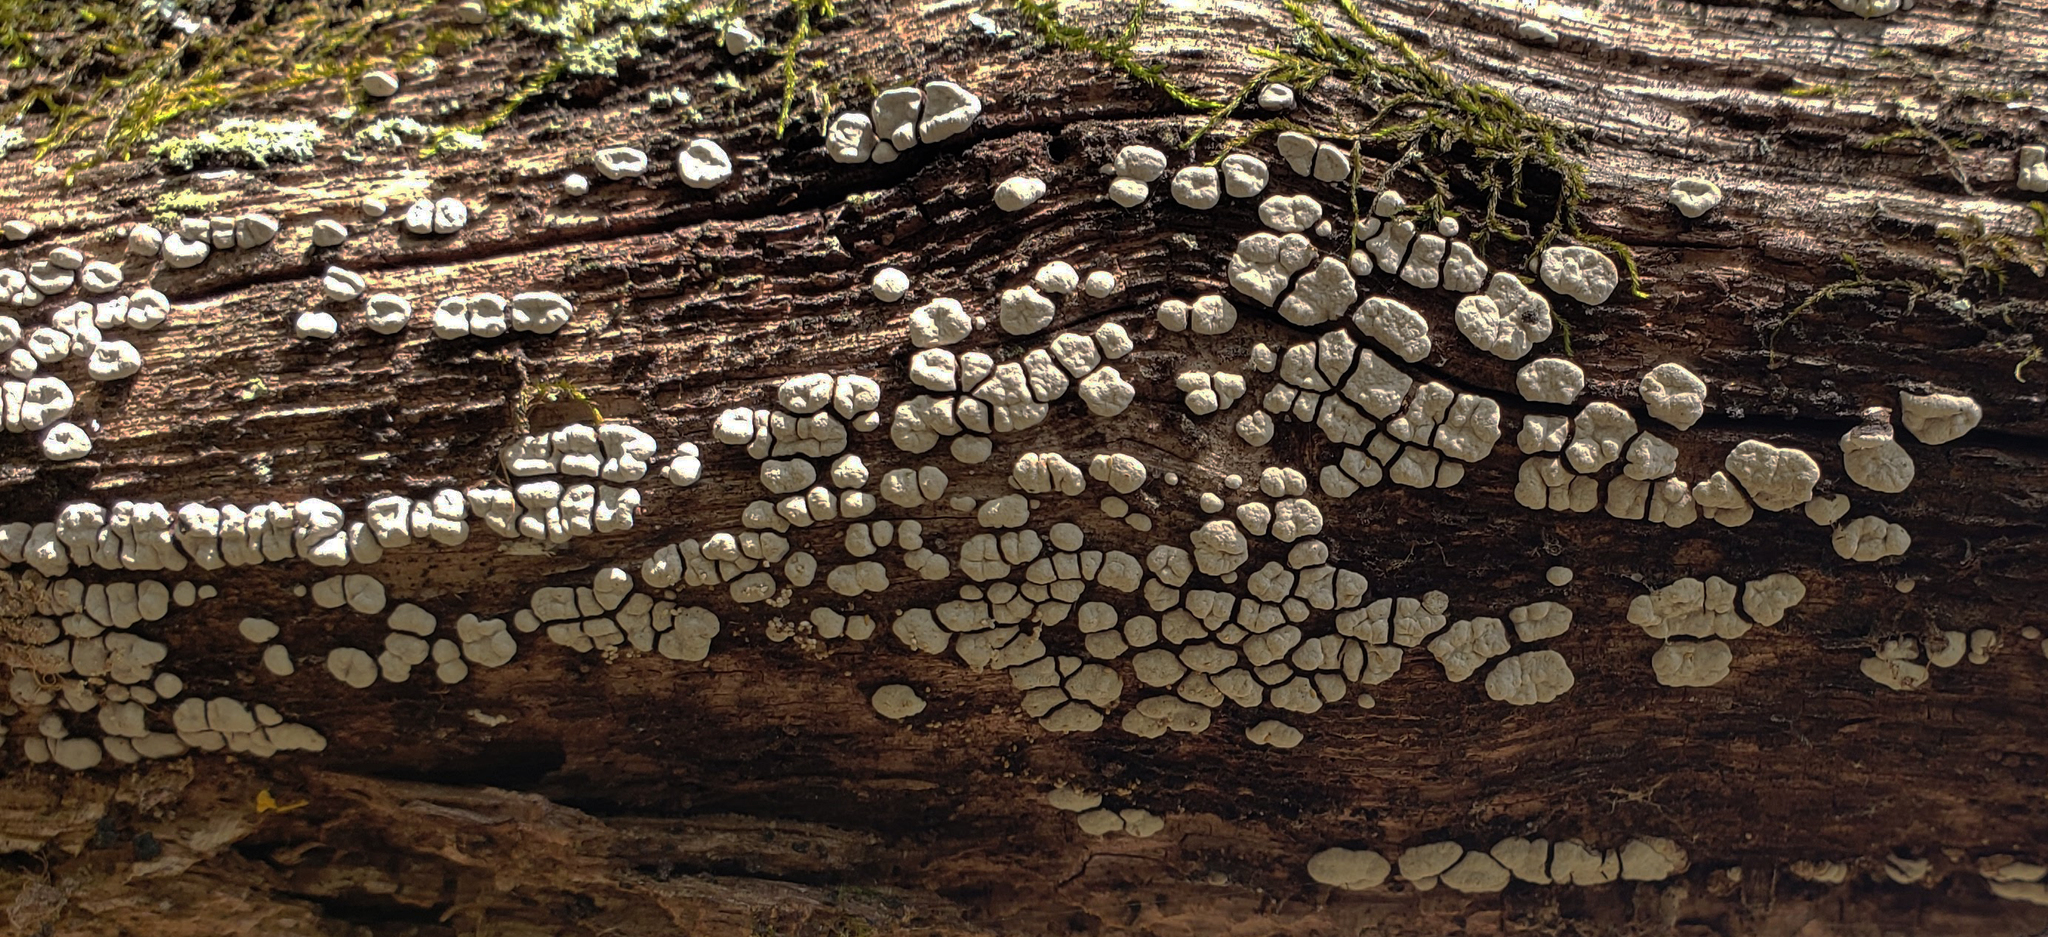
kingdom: Fungi
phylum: Basidiomycota
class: Agaricomycetes
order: Russulales
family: Stereaceae
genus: Xylobolus
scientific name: Xylobolus frustulatus
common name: Ceramic parchment
